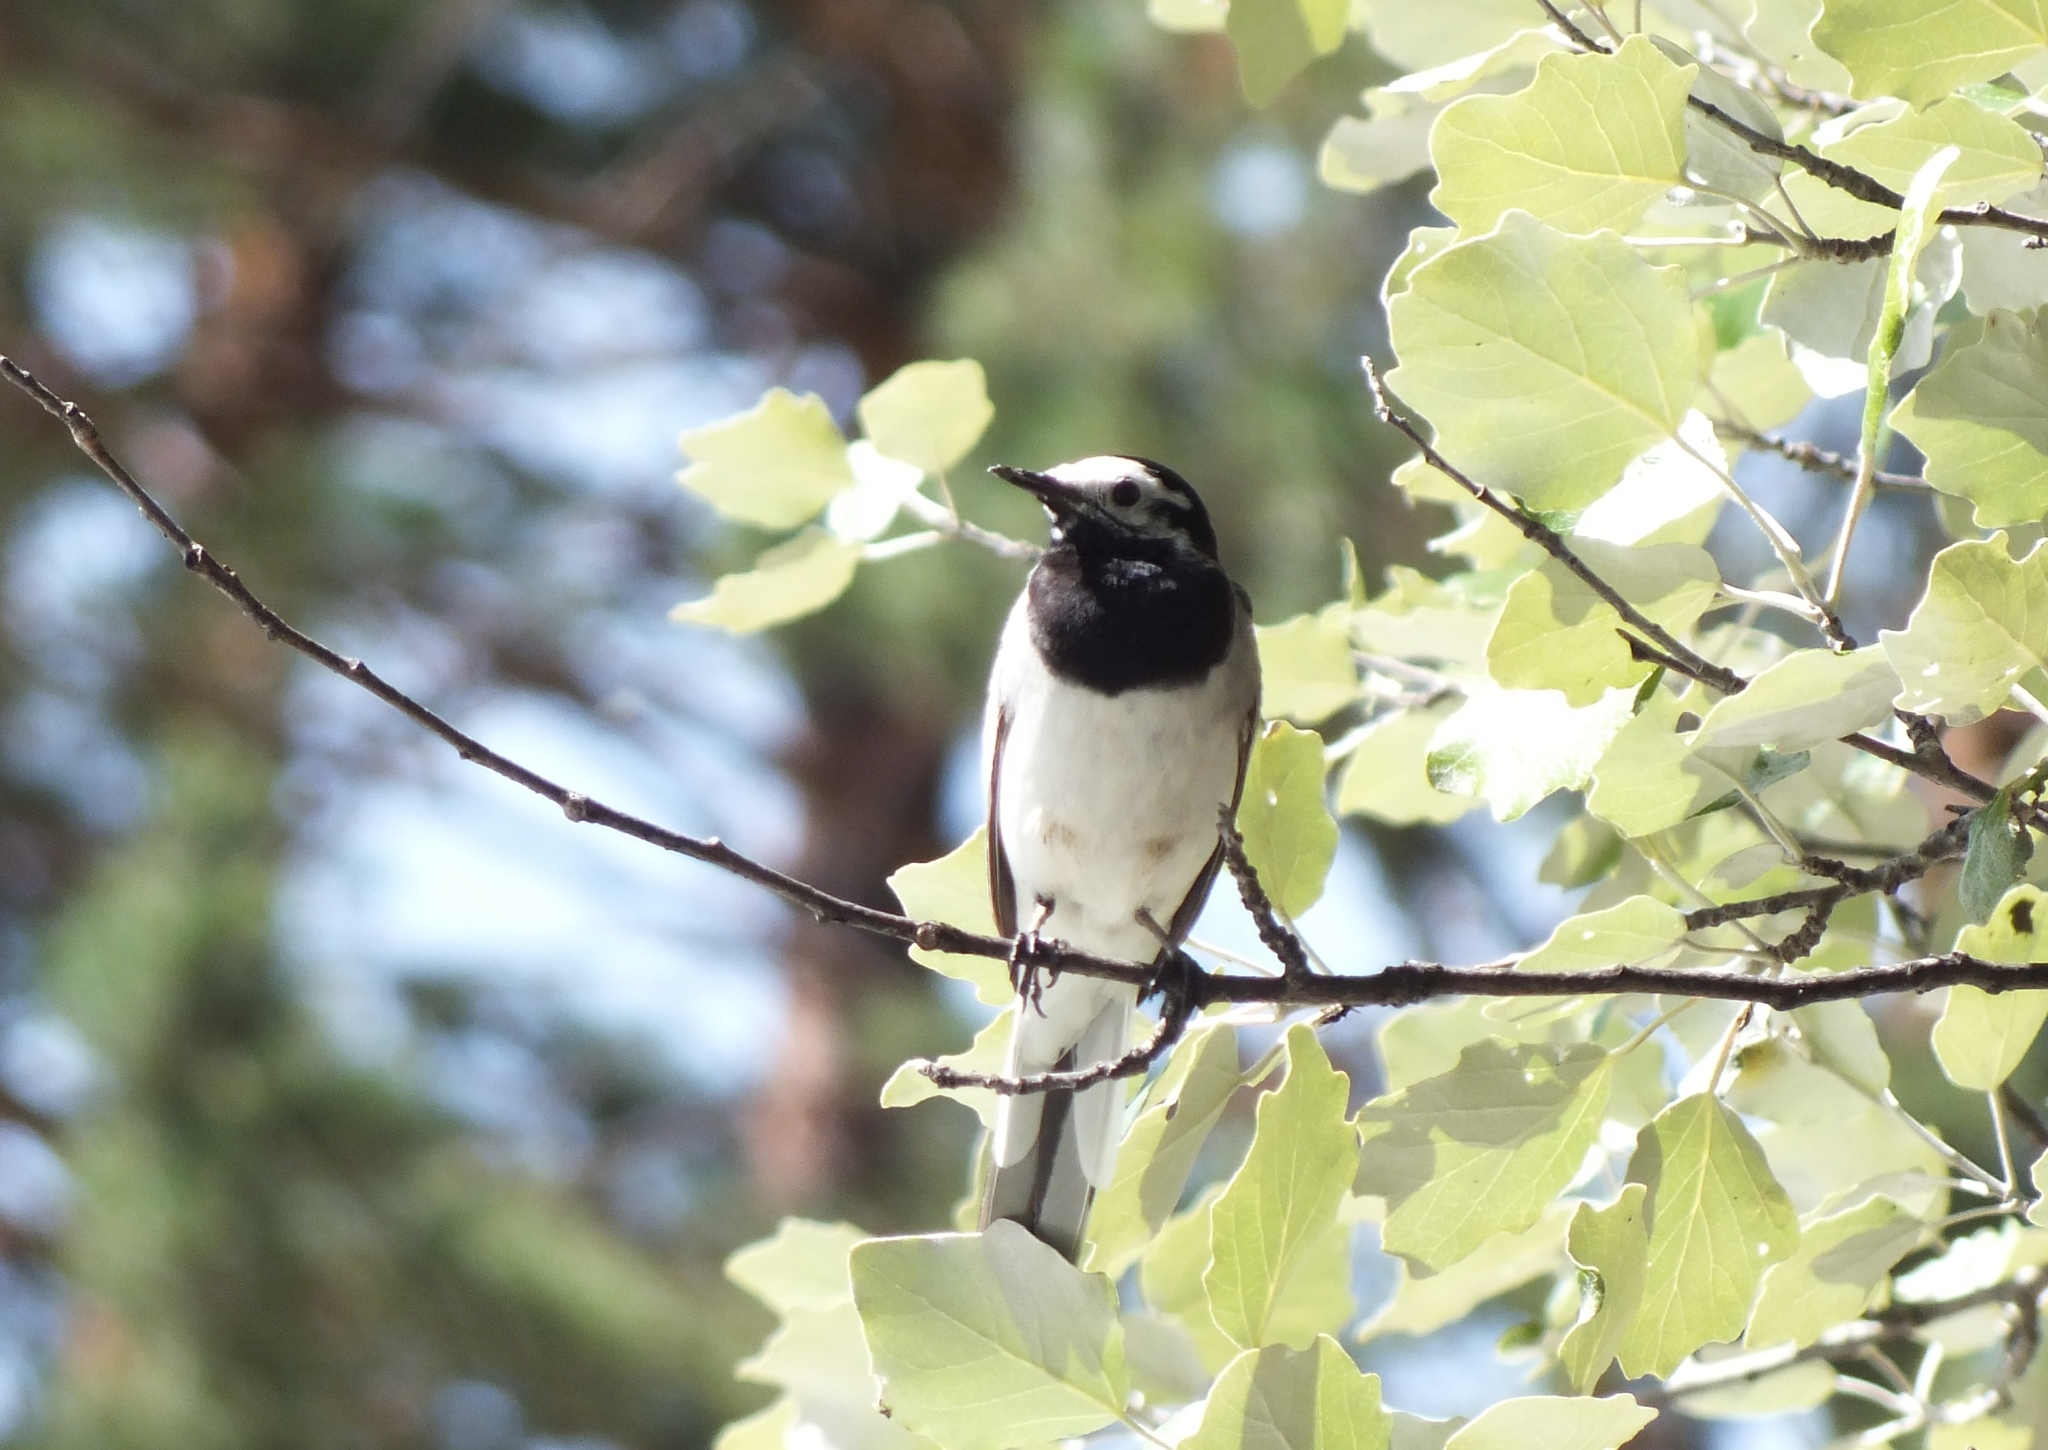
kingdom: Animalia
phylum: Chordata
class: Aves
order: Passeriformes
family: Motacillidae
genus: Motacilla
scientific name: Motacilla alba
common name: White wagtail
